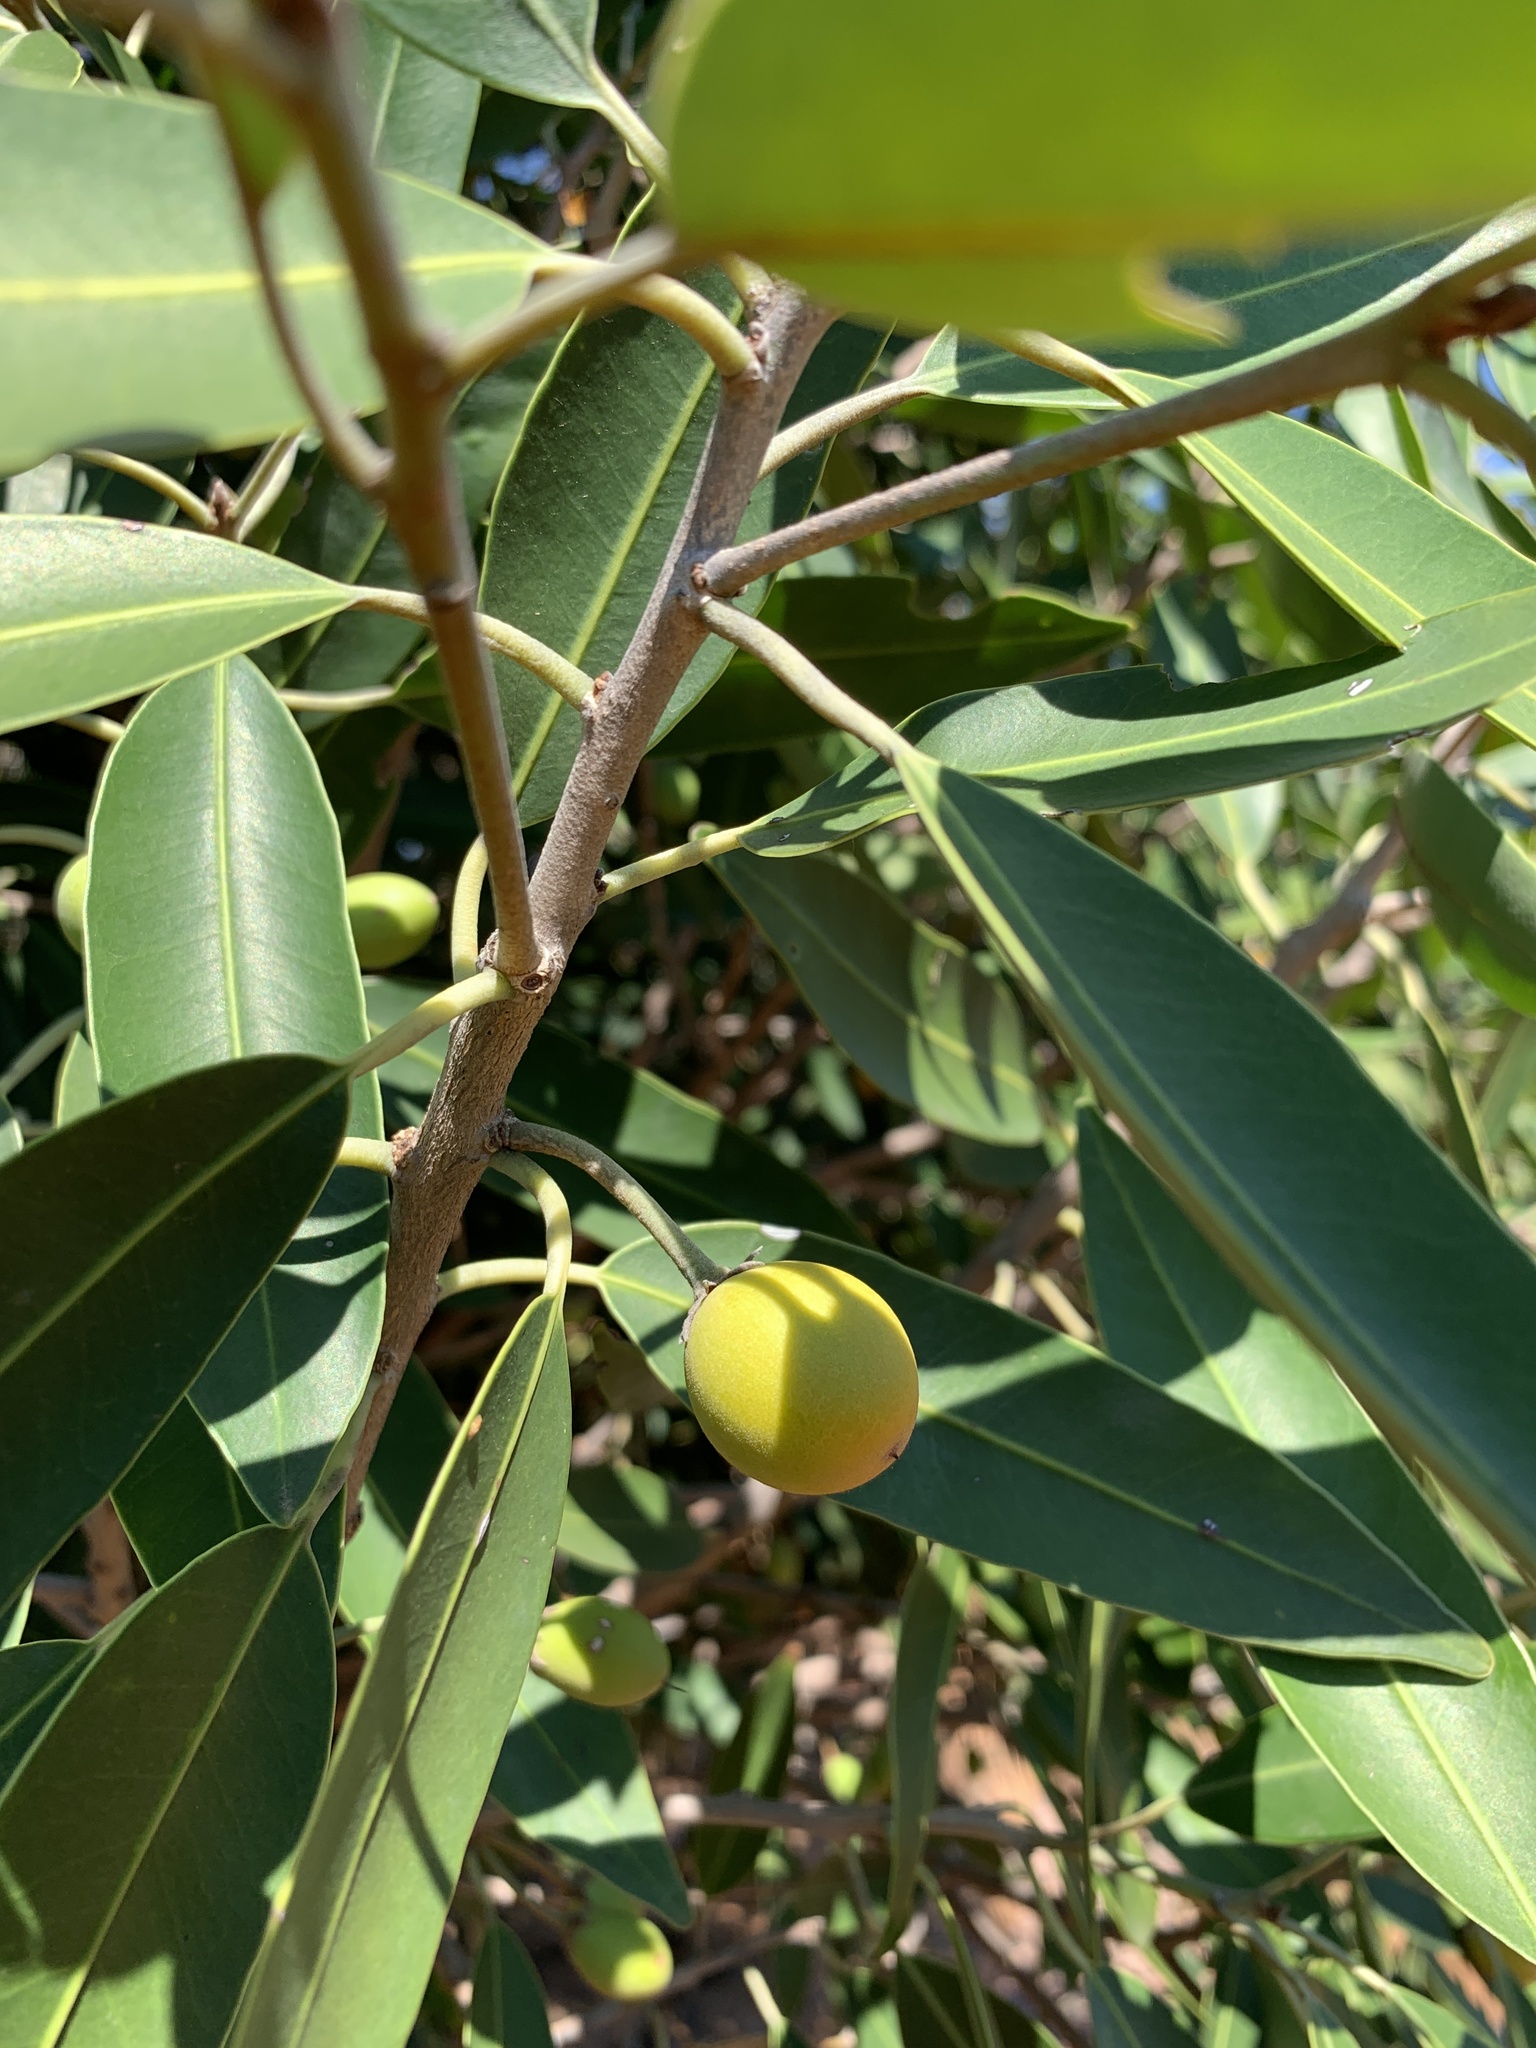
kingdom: Plantae
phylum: Tracheophyta
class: Magnoliopsida
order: Ericales
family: Sapotaceae
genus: Mimusops
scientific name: Mimusops zeyheri
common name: Transvaal red milkwood
